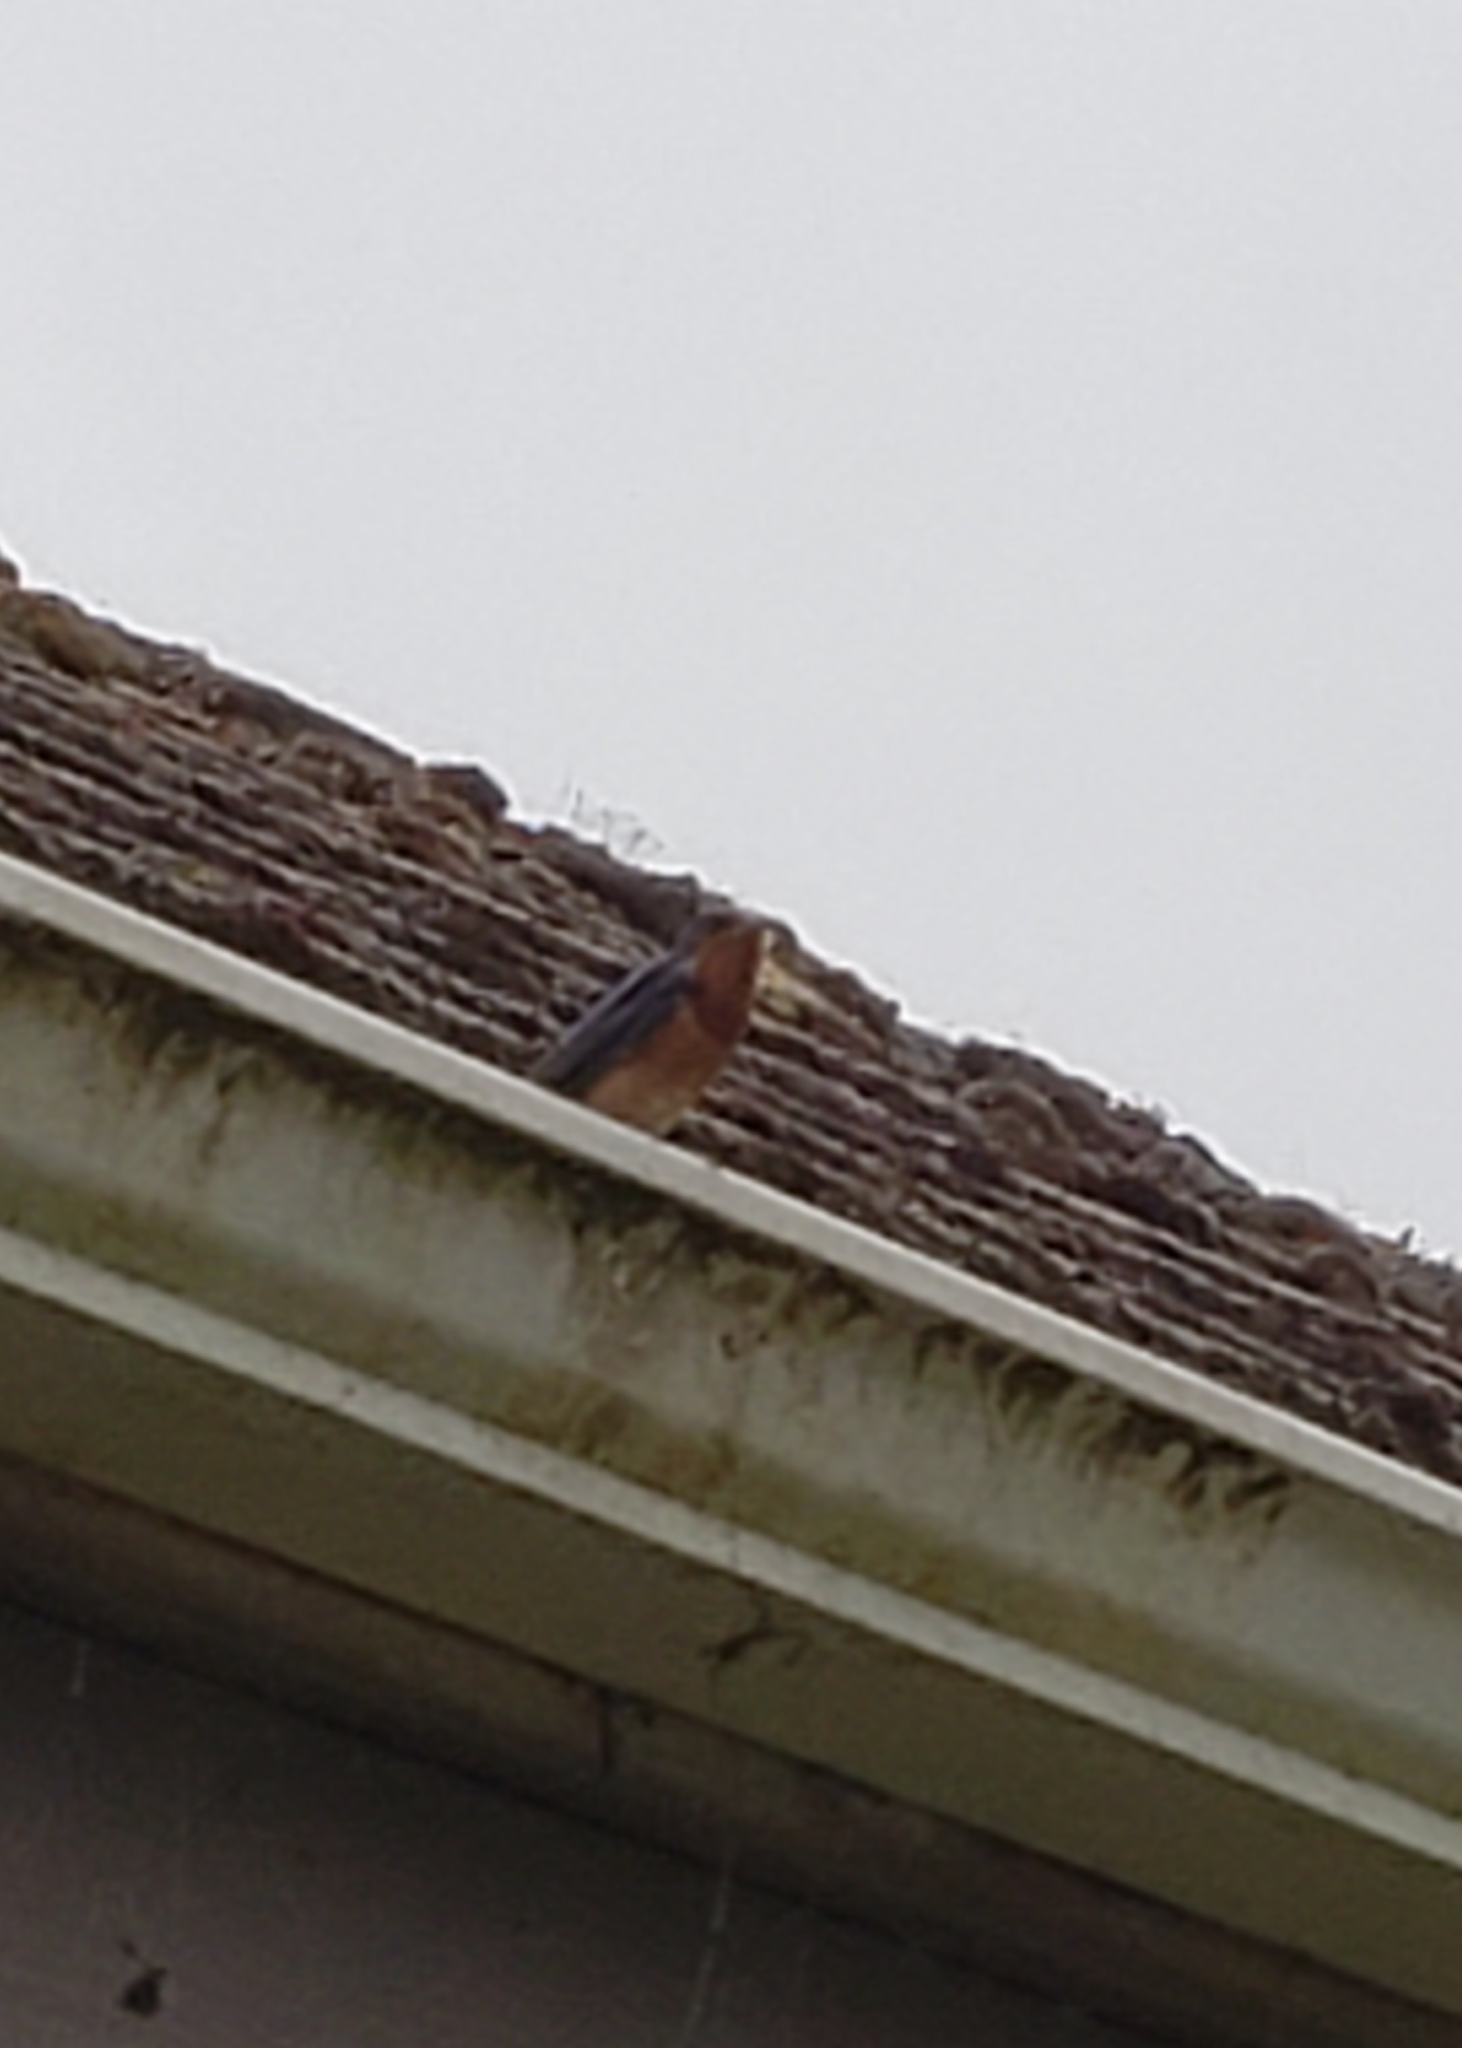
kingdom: Animalia
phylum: Chordata
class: Aves
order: Passeriformes
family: Hirundinidae
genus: Hirundo
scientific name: Hirundo rustica
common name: Barn swallow
